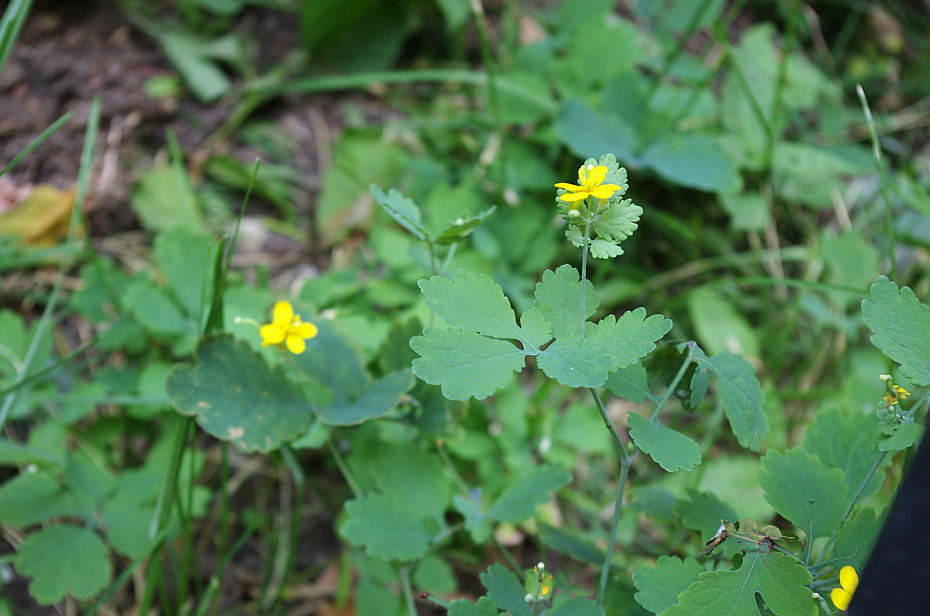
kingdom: Plantae
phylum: Tracheophyta
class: Magnoliopsida
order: Ranunculales
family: Papaveraceae
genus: Chelidonium
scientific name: Chelidonium majus
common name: Greater celandine
